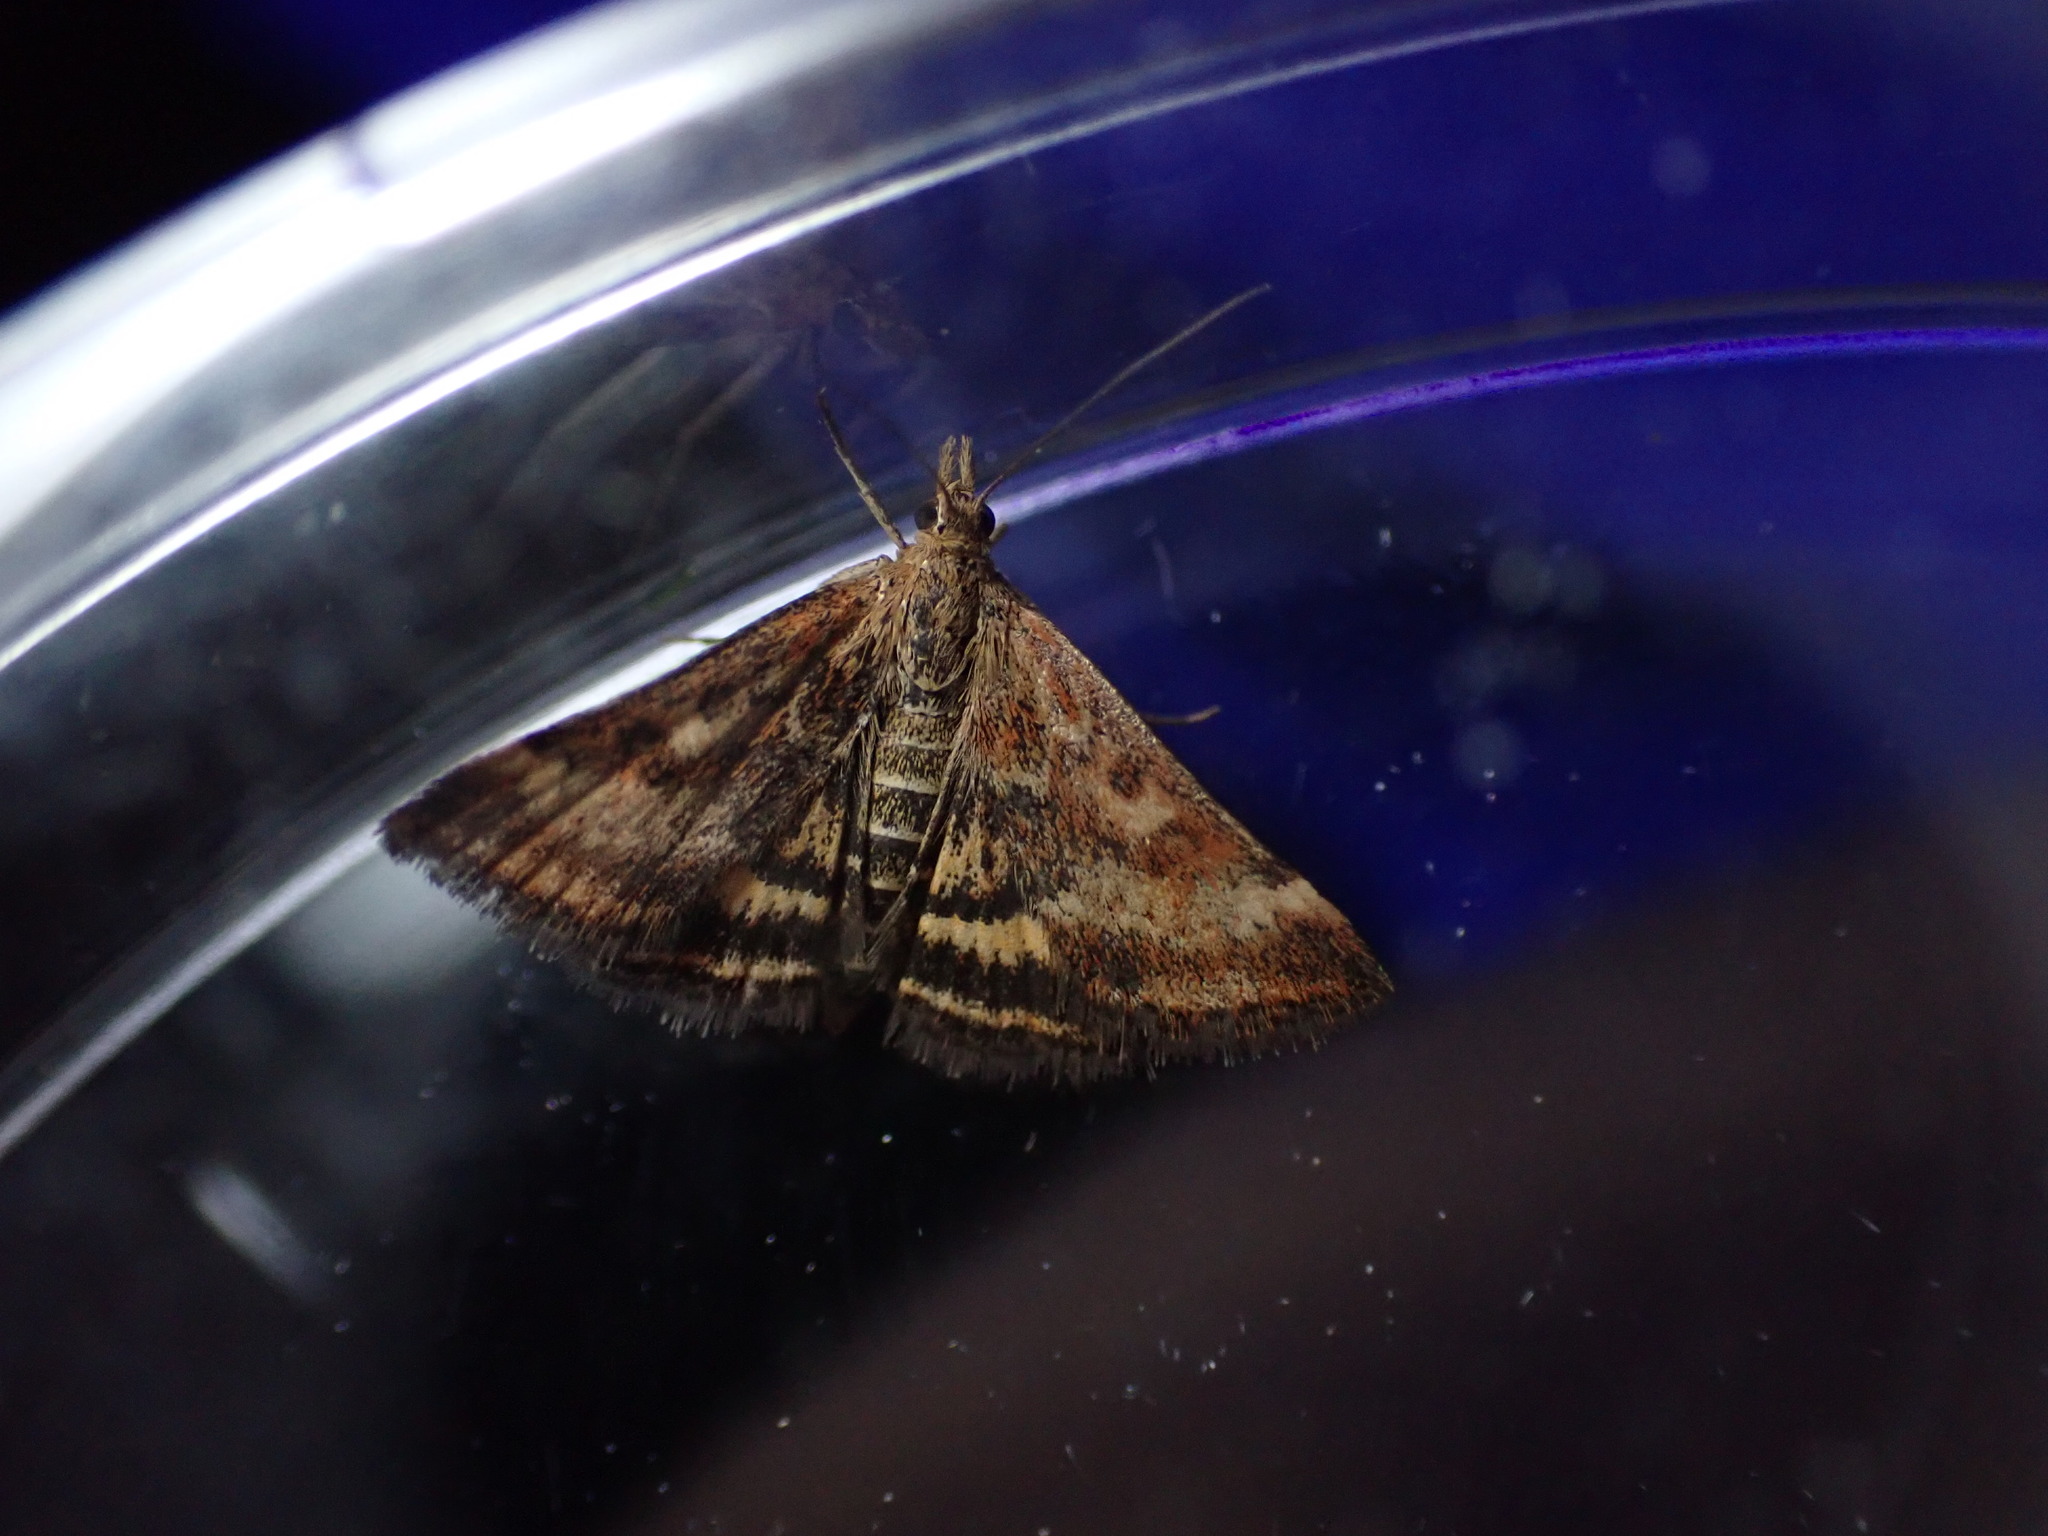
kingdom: Animalia
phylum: Arthropoda
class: Insecta
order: Lepidoptera
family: Crambidae
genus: Pyrausta
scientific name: Pyrausta despicata
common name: Straw-barred pearl
